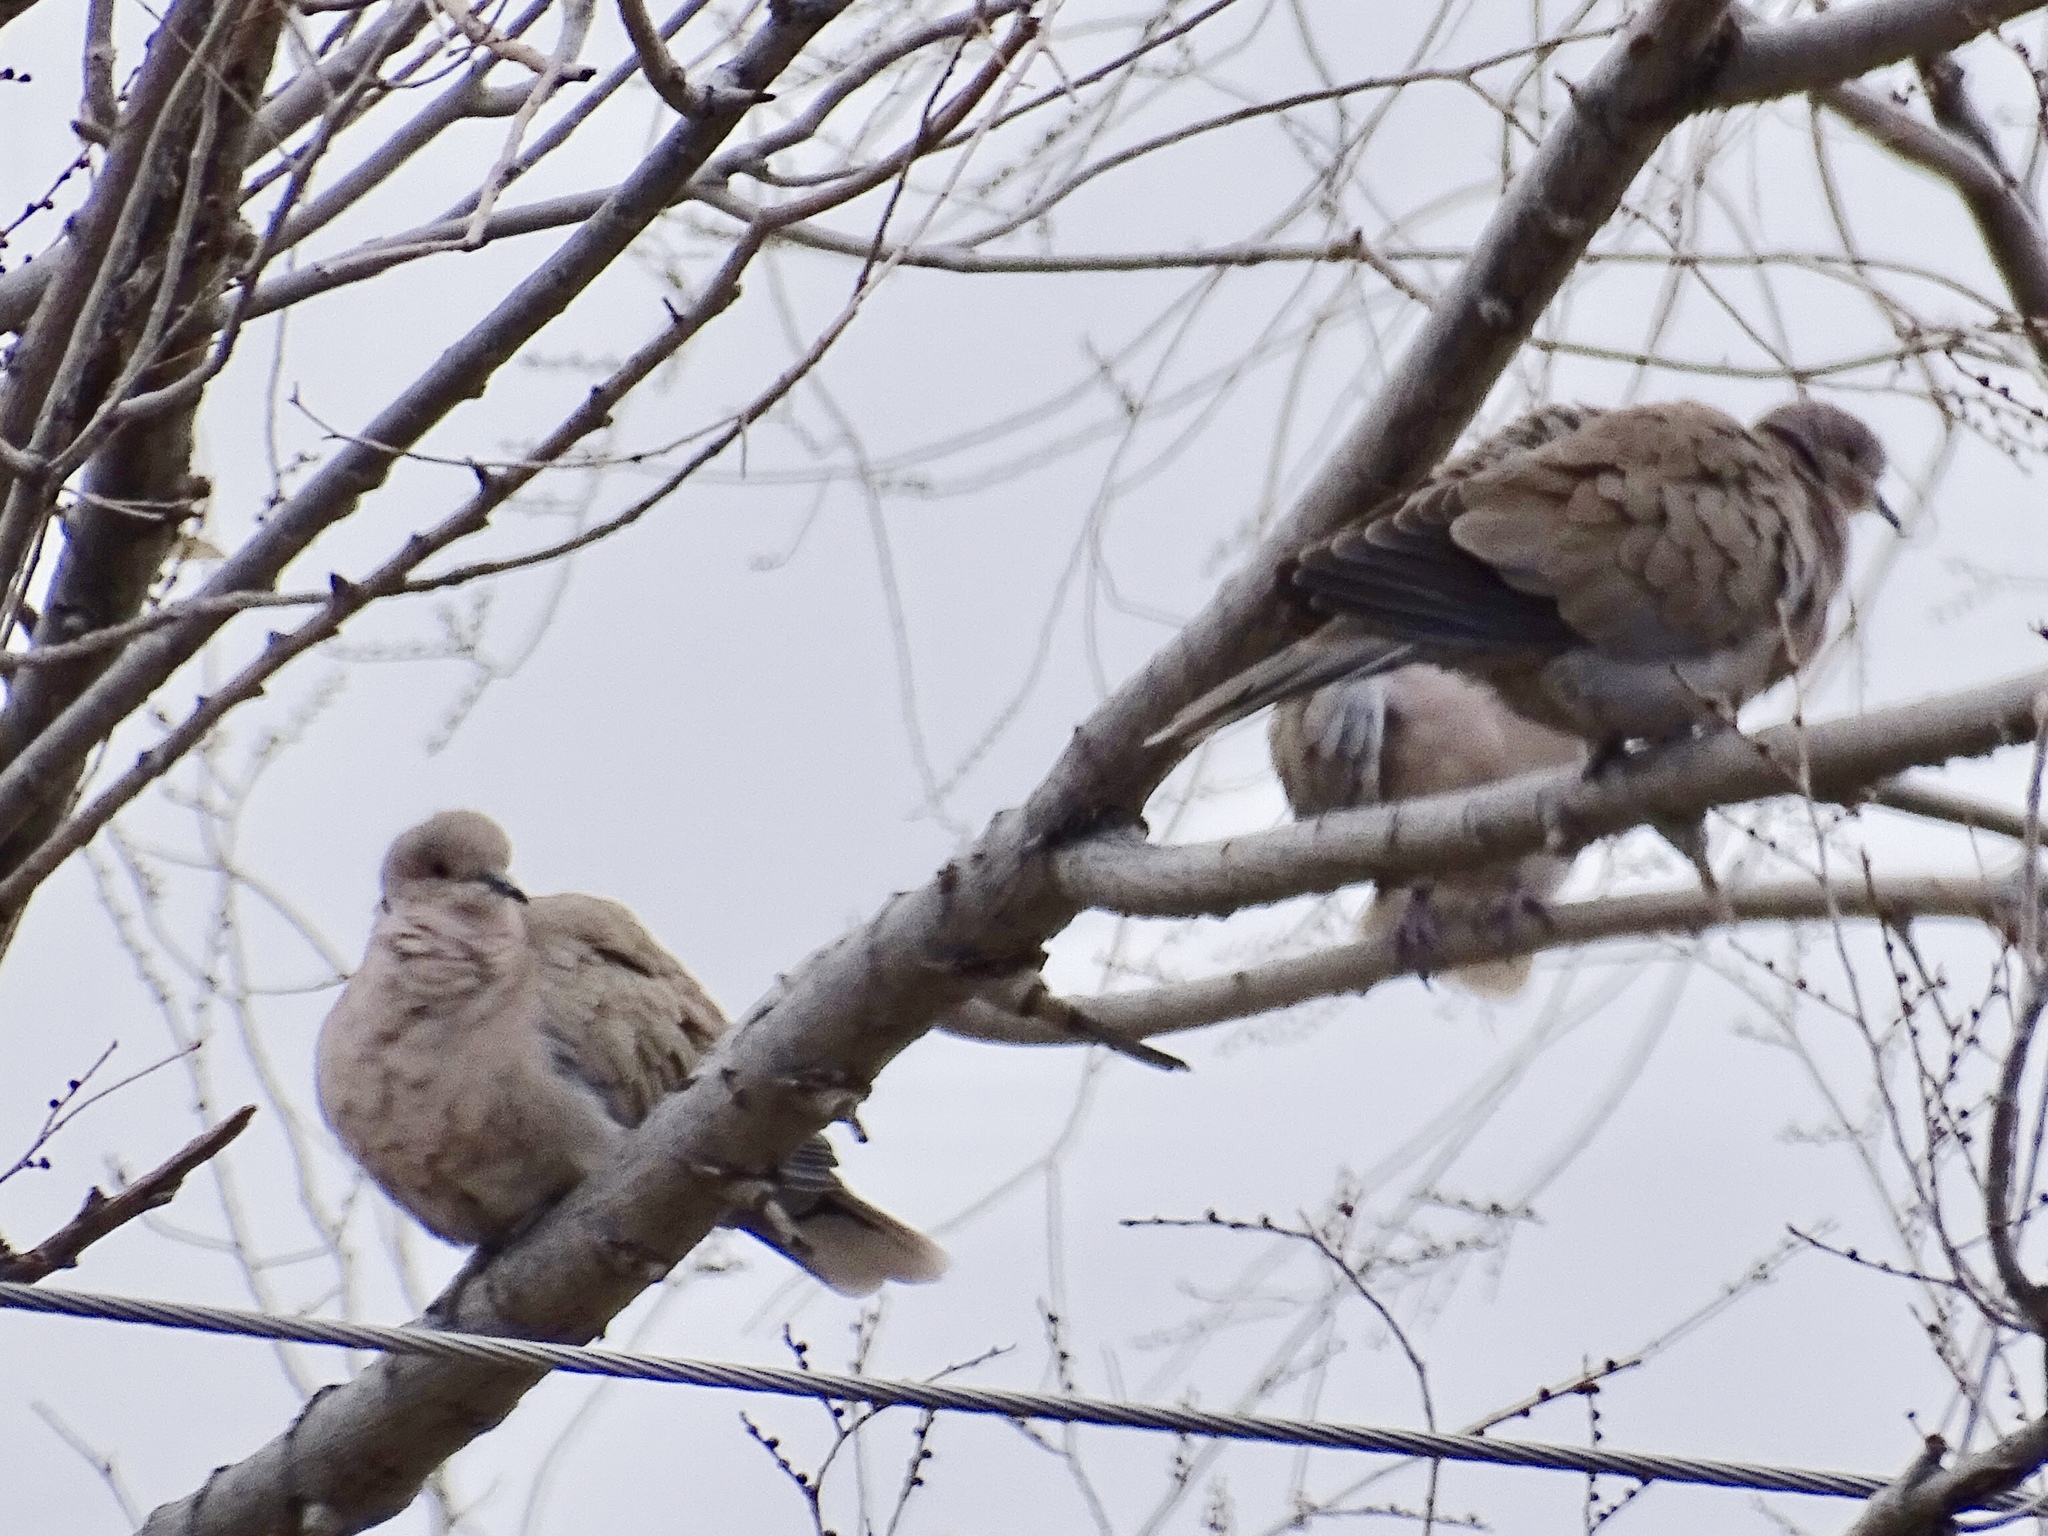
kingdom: Animalia
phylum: Chordata
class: Aves
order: Columbiformes
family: Columbidae
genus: Streptopelia
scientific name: Streptopelia decaocto
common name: Eurasian collared dove
